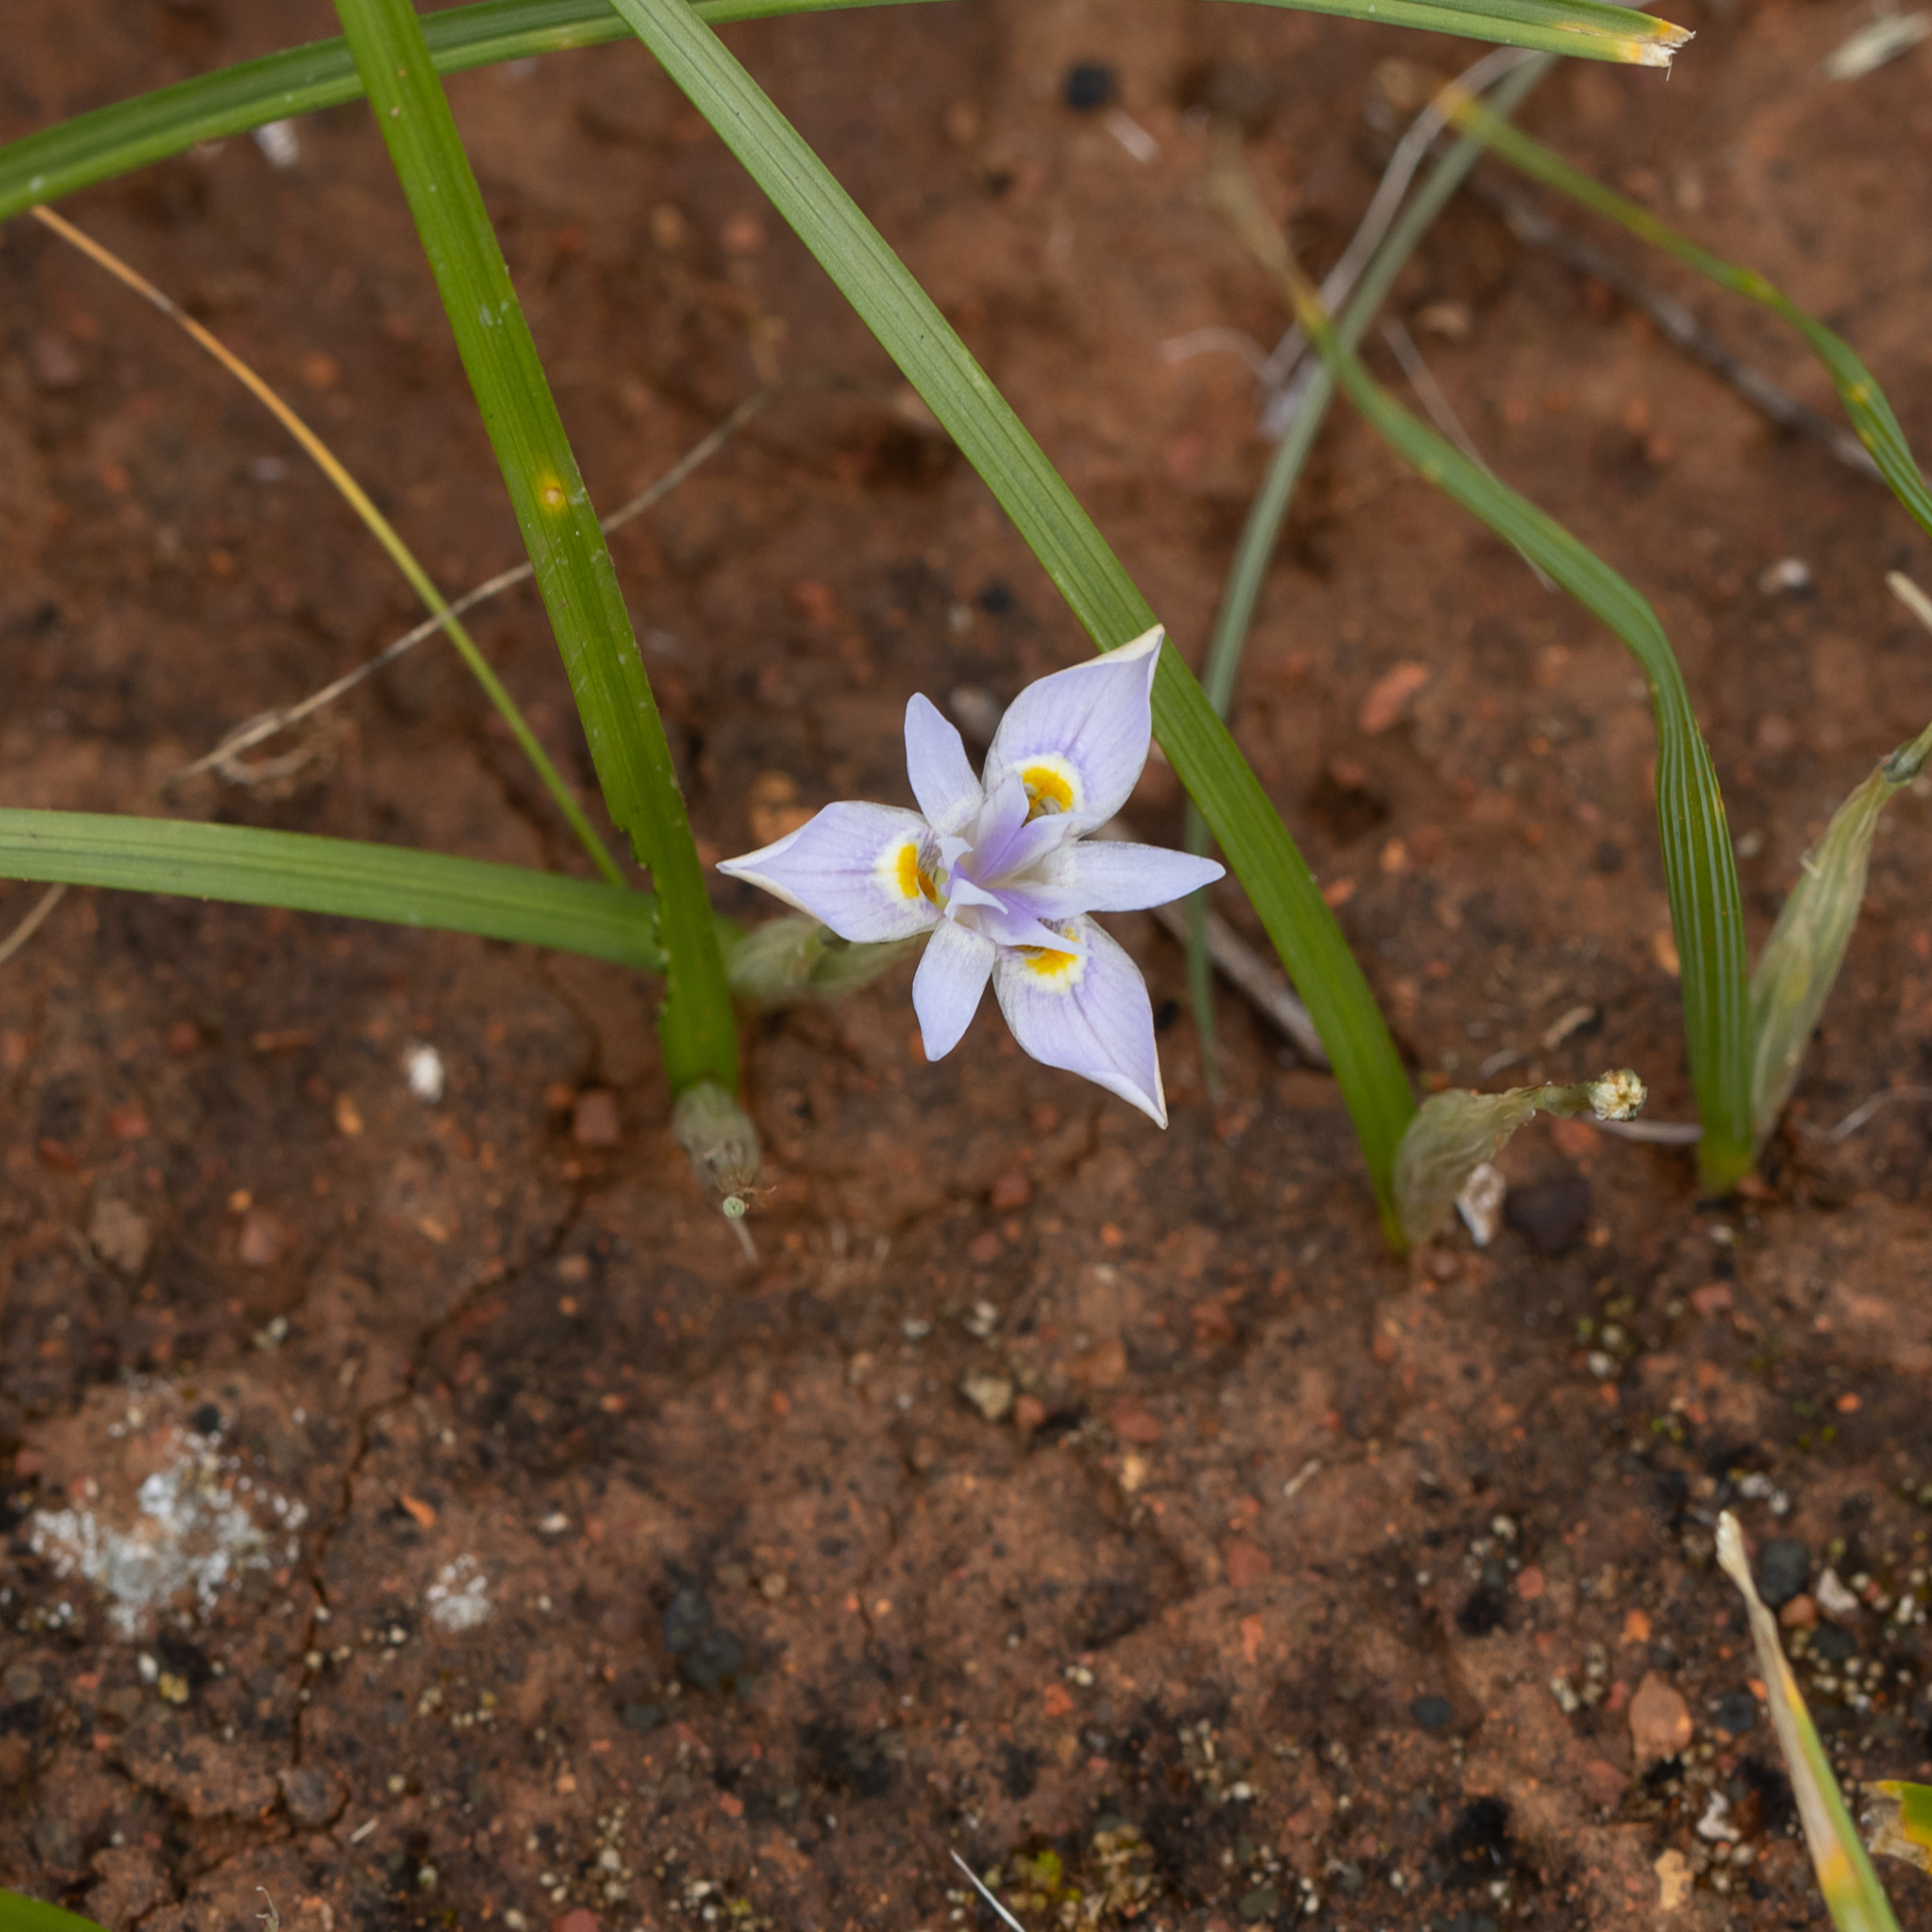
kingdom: Plantae
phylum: Tracheophyta
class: Liliopsida
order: Asparagales
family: Iridaceae
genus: Moraea
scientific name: Moraea setifolia
